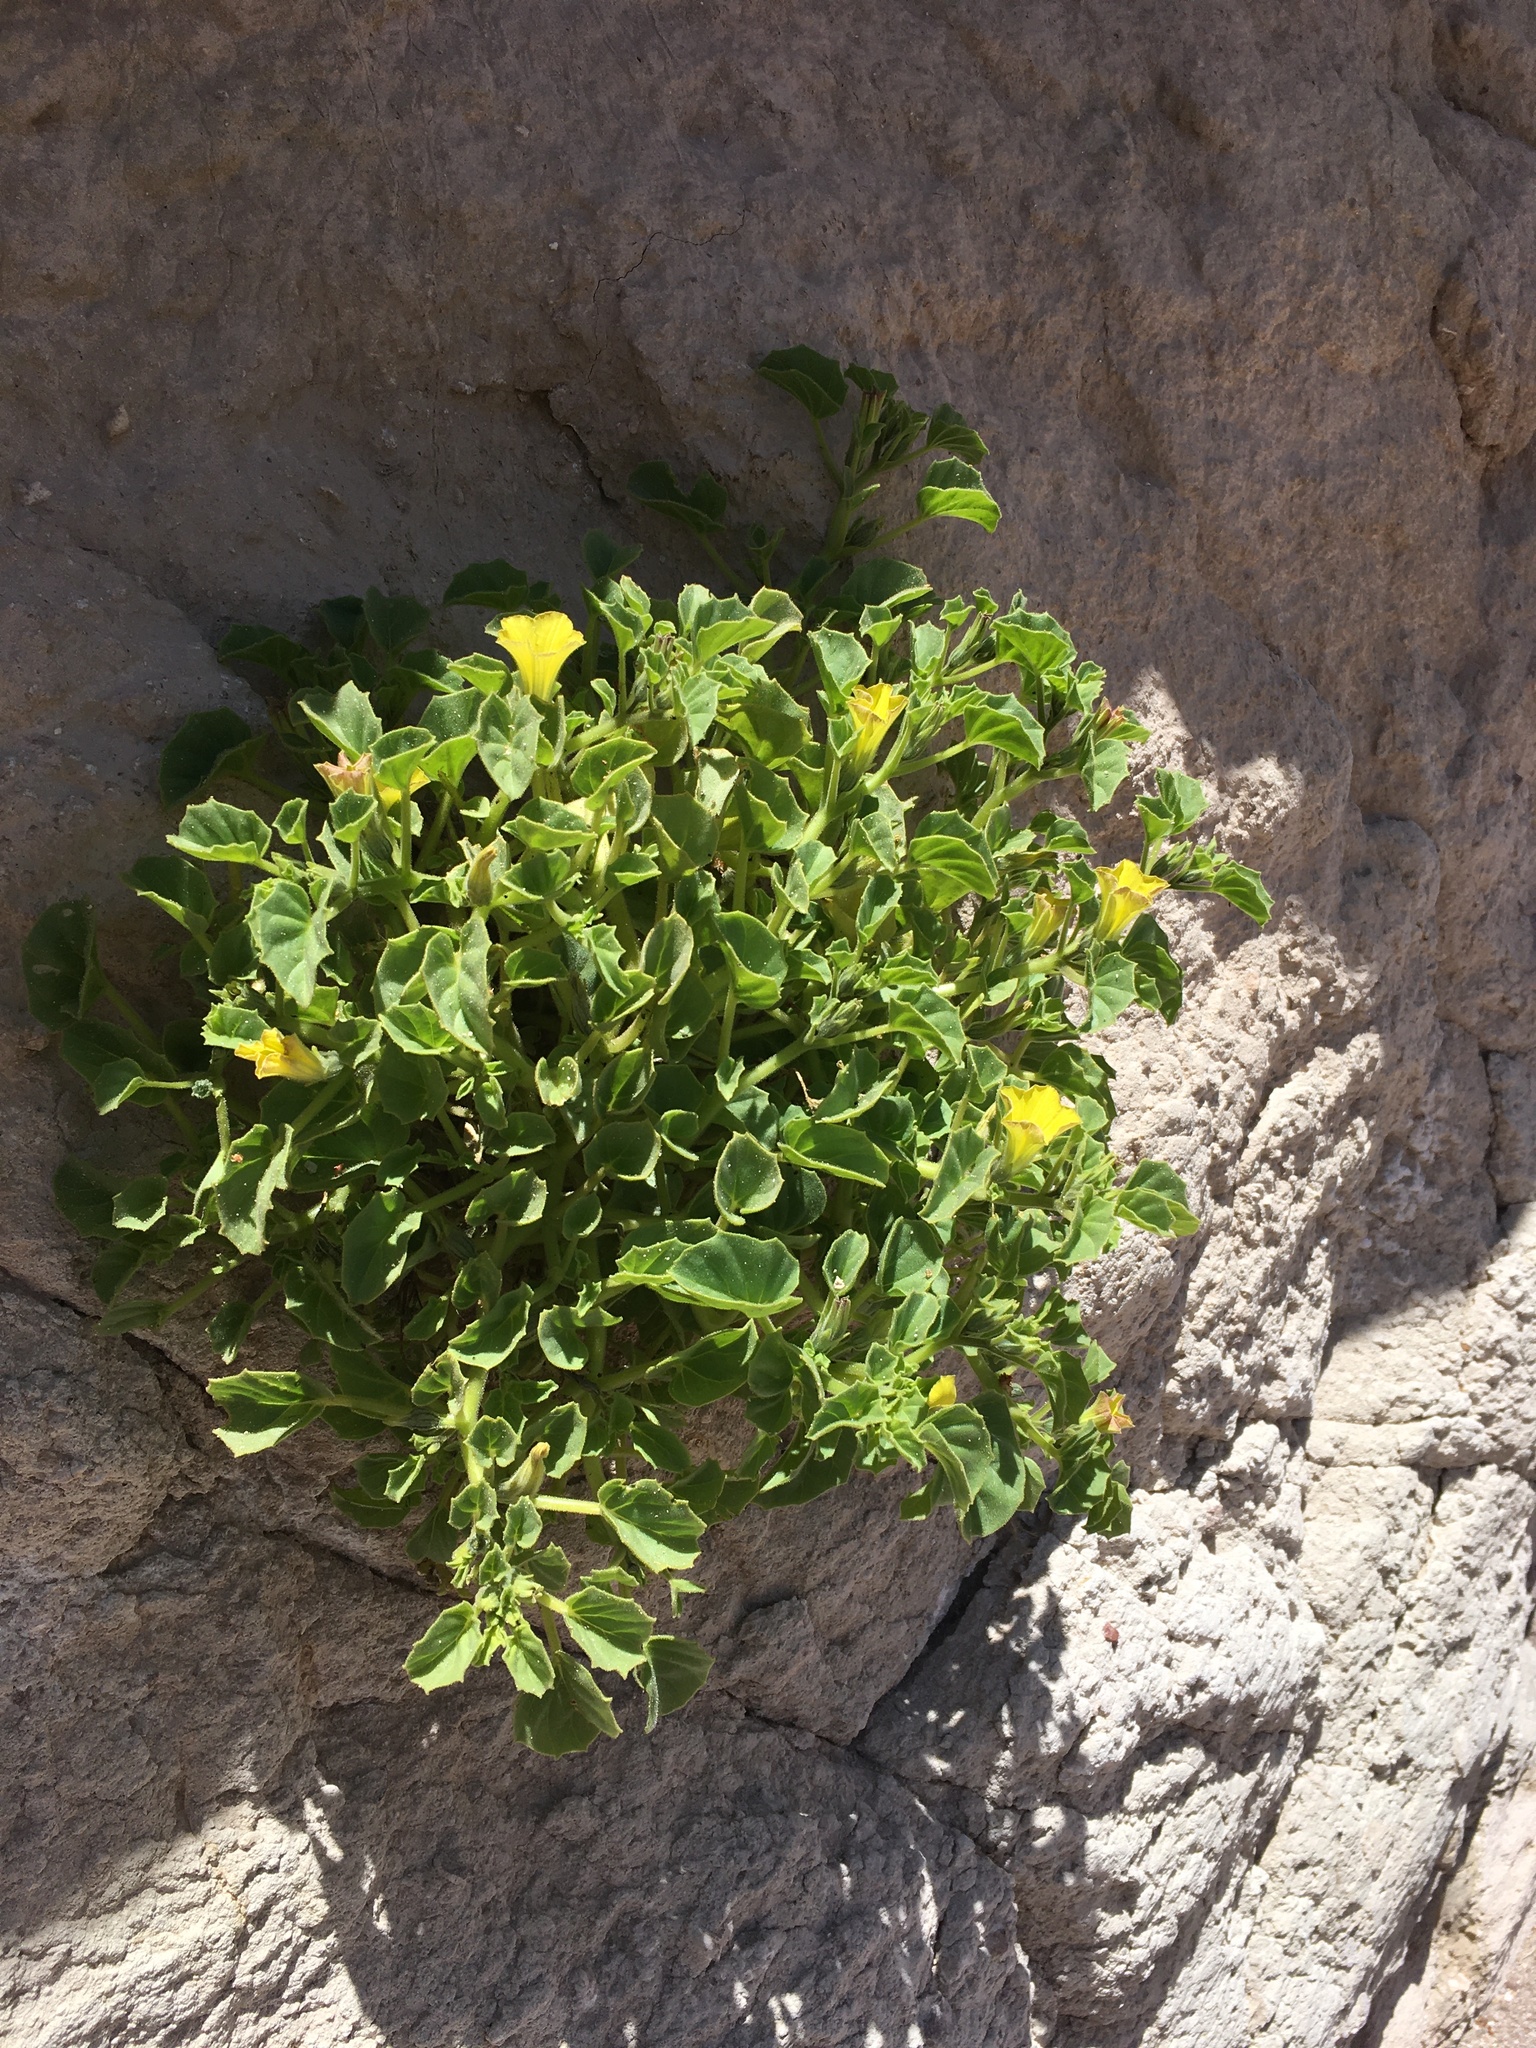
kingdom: Plantae
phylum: Tracheophyta
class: Magnoliopsida
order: Solanales
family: Solanaceae
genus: Exodeconus
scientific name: Exodeconus flavus
